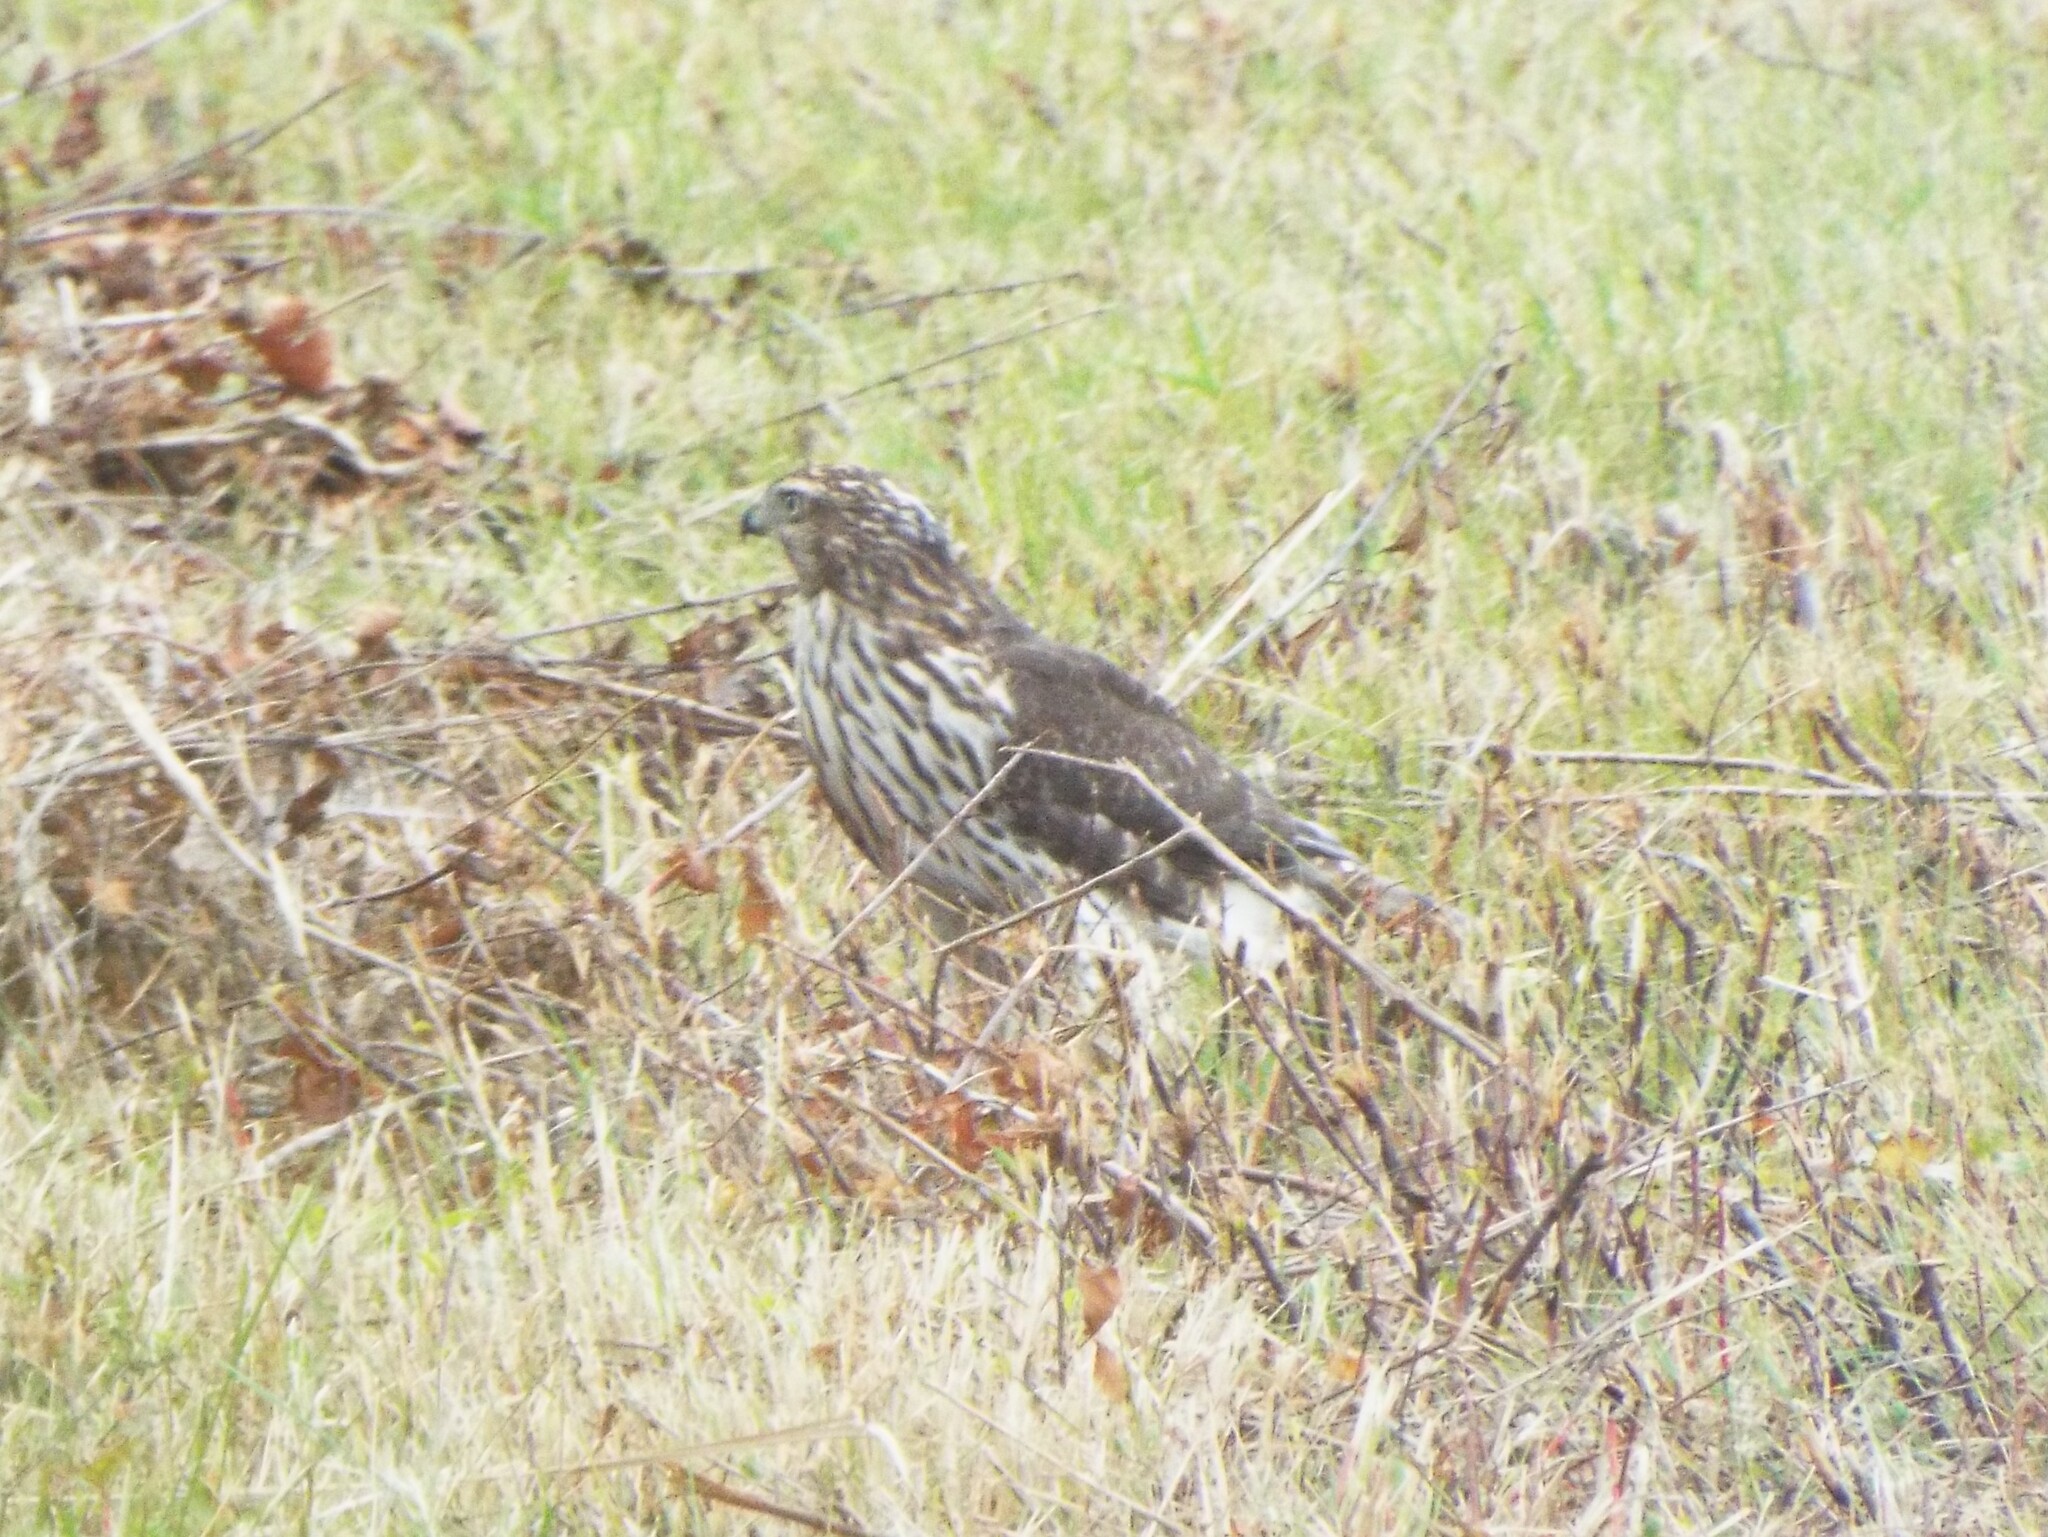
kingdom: Animalia
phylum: Chordata
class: Aves
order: Accipitriformes
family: Accipitridae
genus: Accipiter
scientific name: Accipiter cooperii
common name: Cooper's hawk
